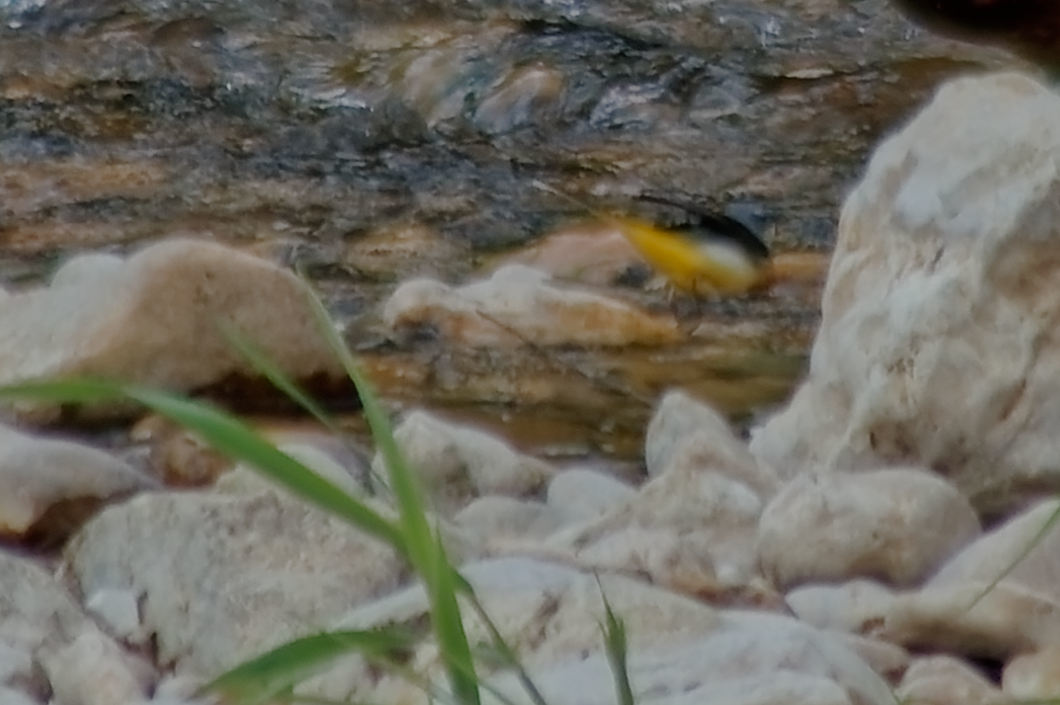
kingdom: Animalia
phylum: Chordata
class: Aves
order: Passeriformes
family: Motacillidae
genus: Motacilla
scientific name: Motacilla cinerea
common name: Grey wagtail
